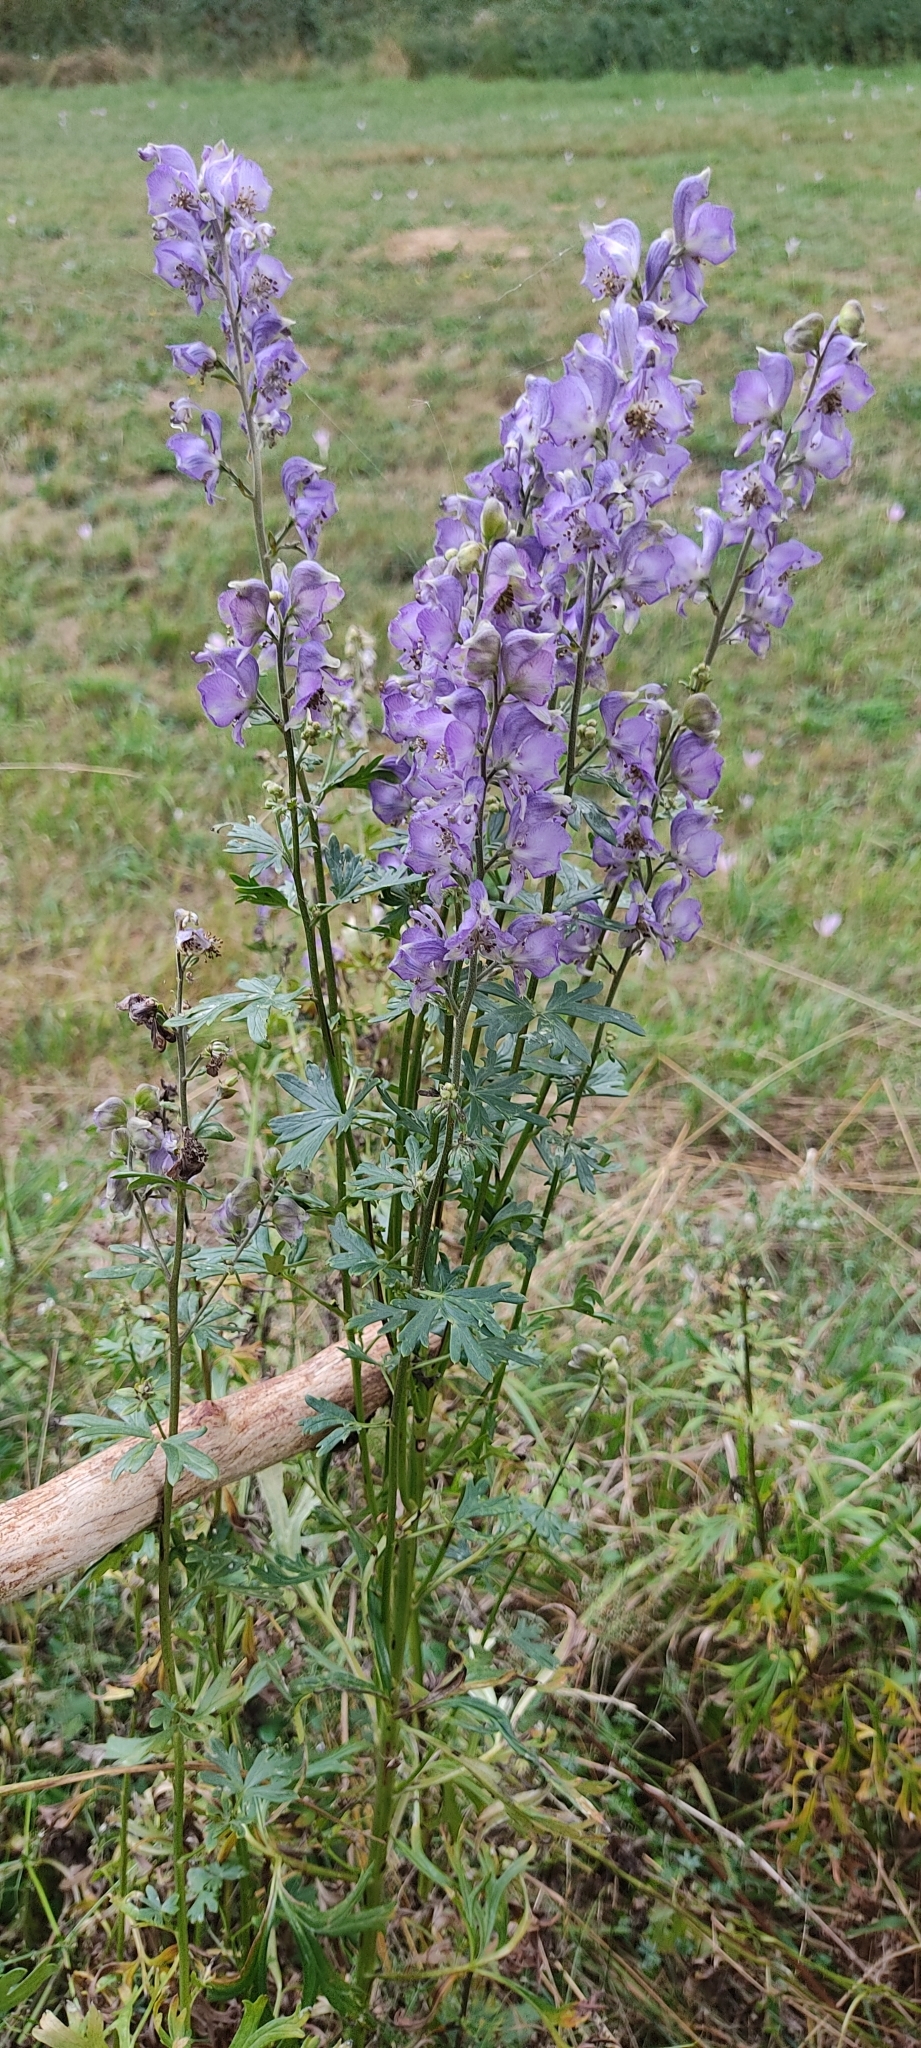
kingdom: Plantae
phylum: Tracheophyta
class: Magnoliopsida
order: Ranunculales
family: Ranunculaceae
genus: Aconitum
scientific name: Aconitum napellus
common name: Garden monkshood
